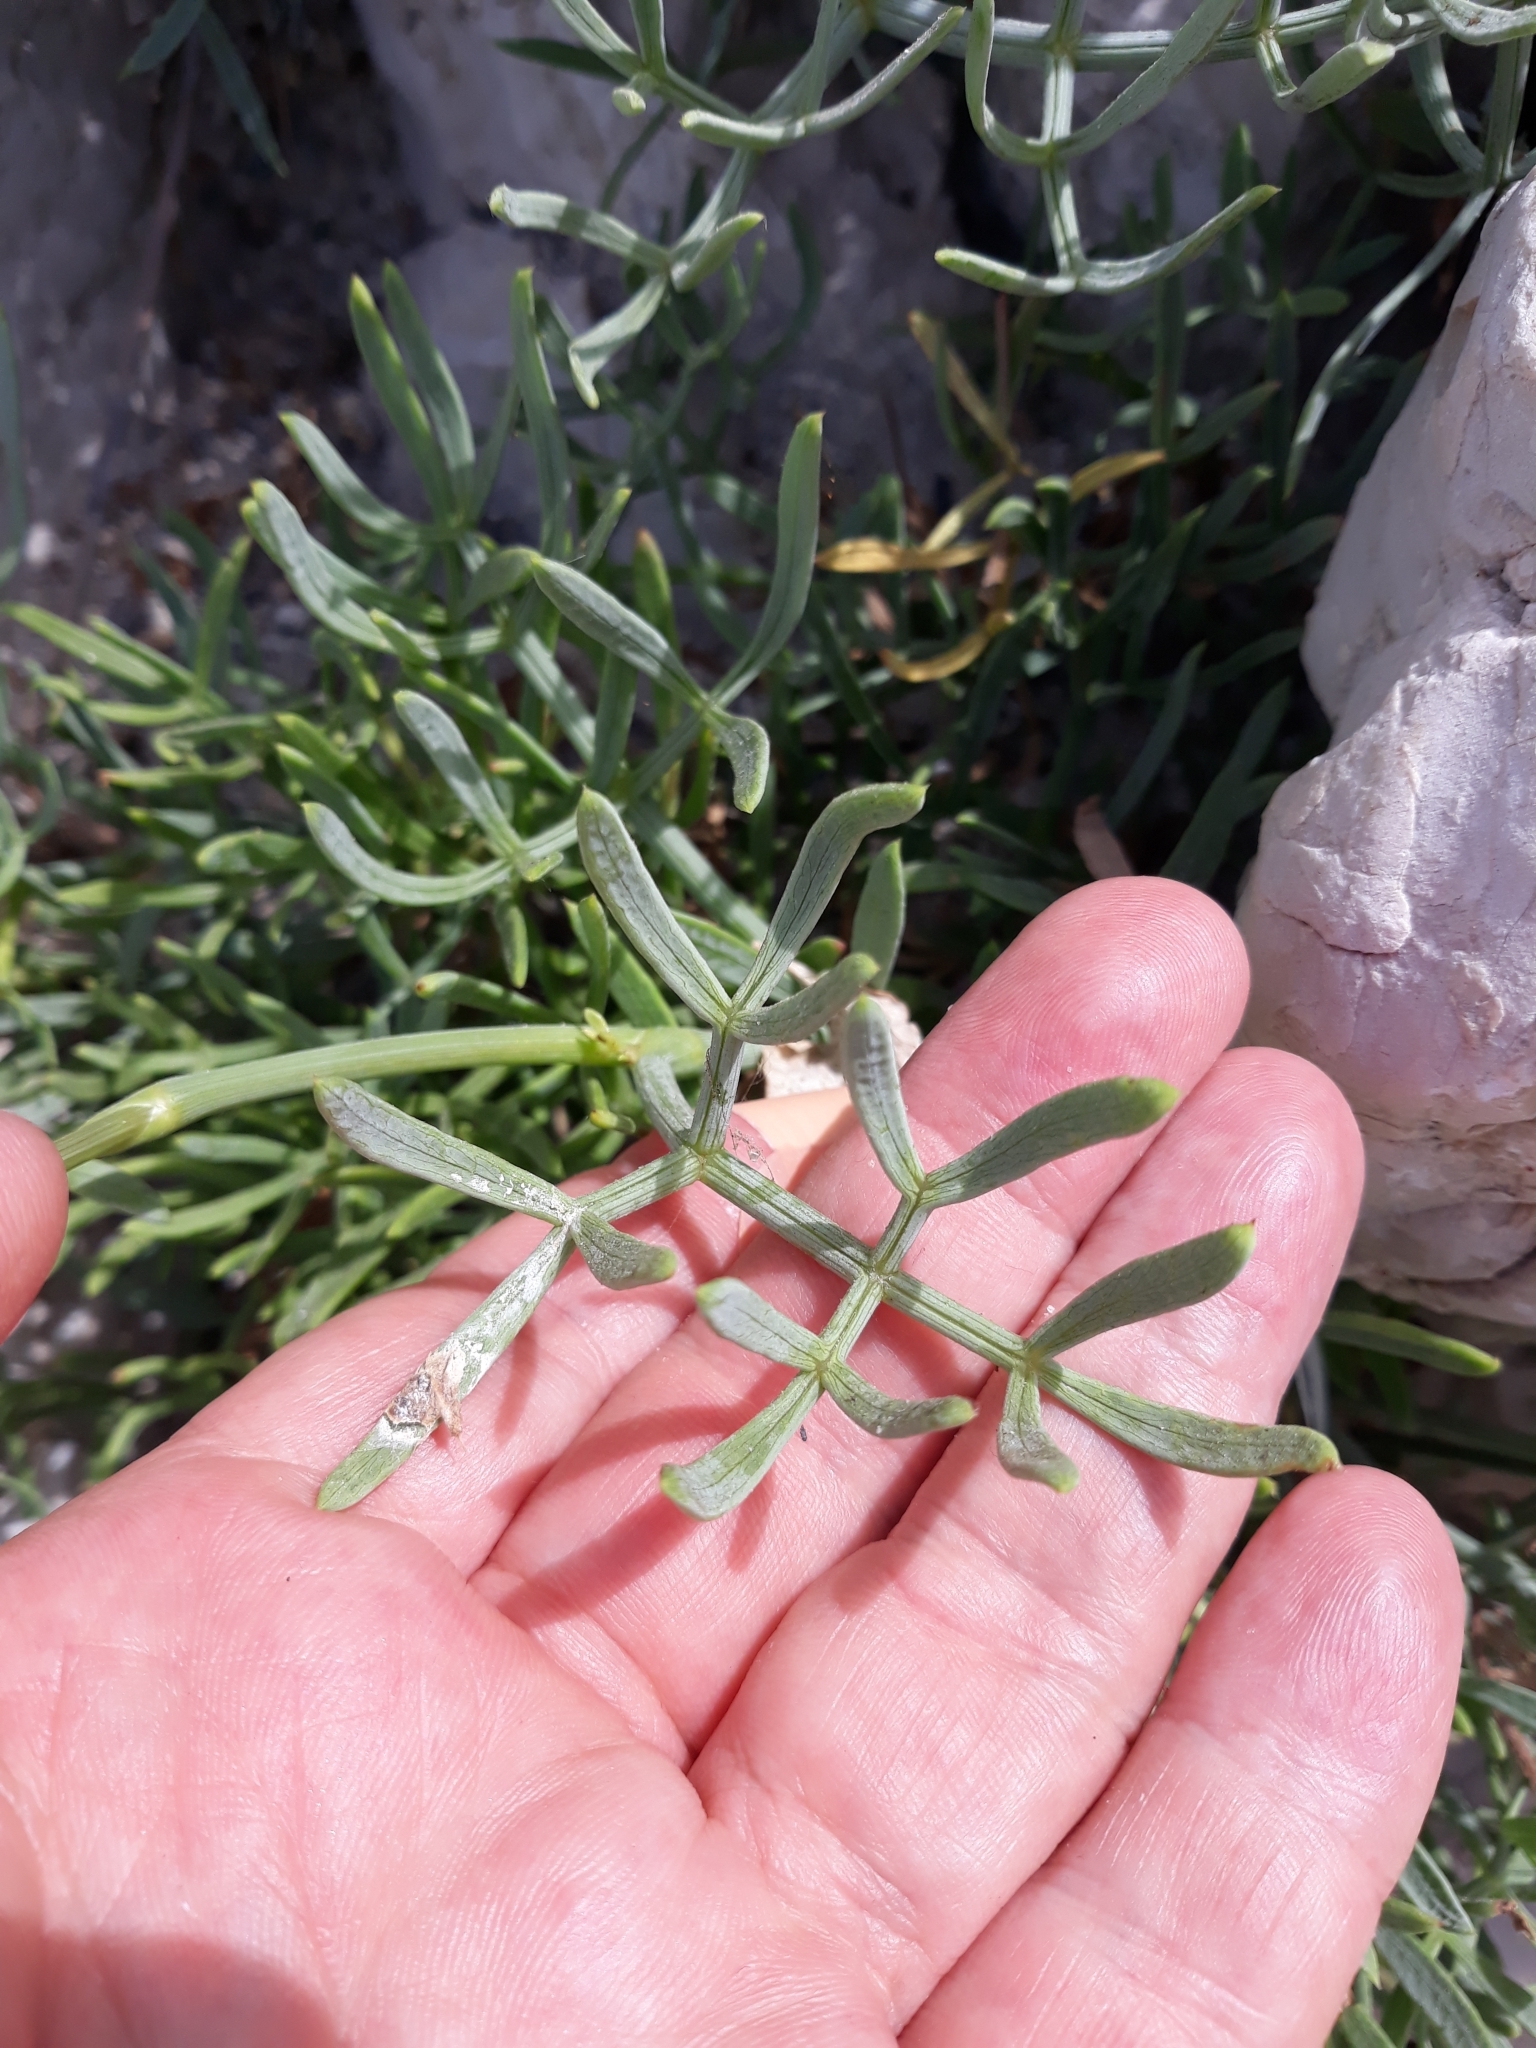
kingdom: Plantae
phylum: Tracheophyta
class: Magnoliopsida
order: Apiales
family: Apiaceae
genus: Crithmum
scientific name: Crithmum maritimum
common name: Rock samphire
